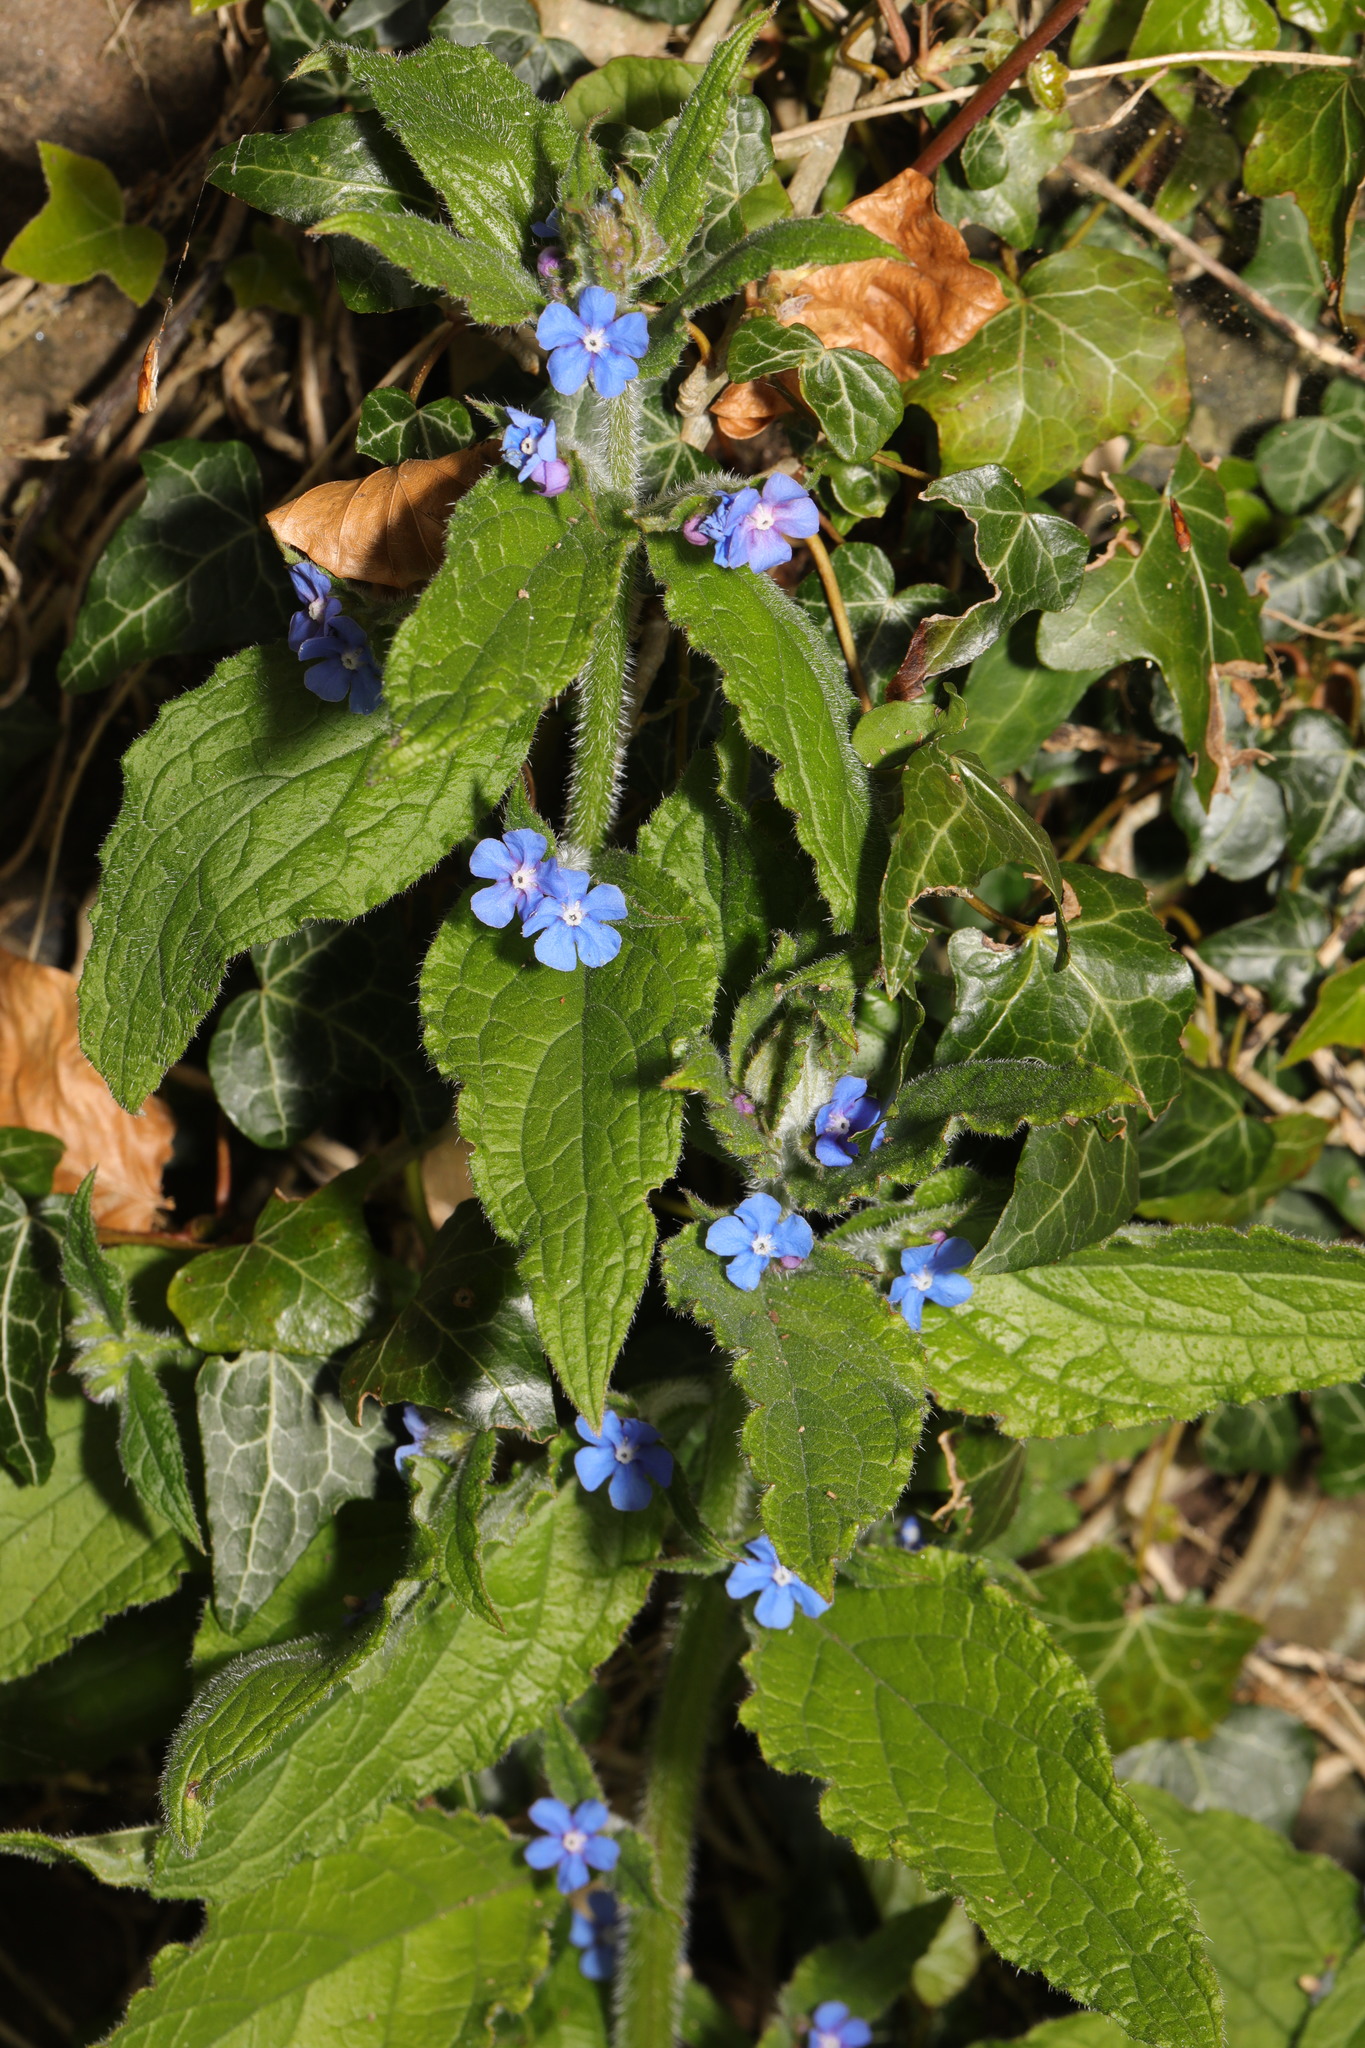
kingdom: Plantae
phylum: Tracheophyta
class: Magnoliopsida
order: Boraginales
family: Boraginaceae
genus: Pentaglottis
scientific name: Pentaglottis sempervirens
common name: Green alkanet
